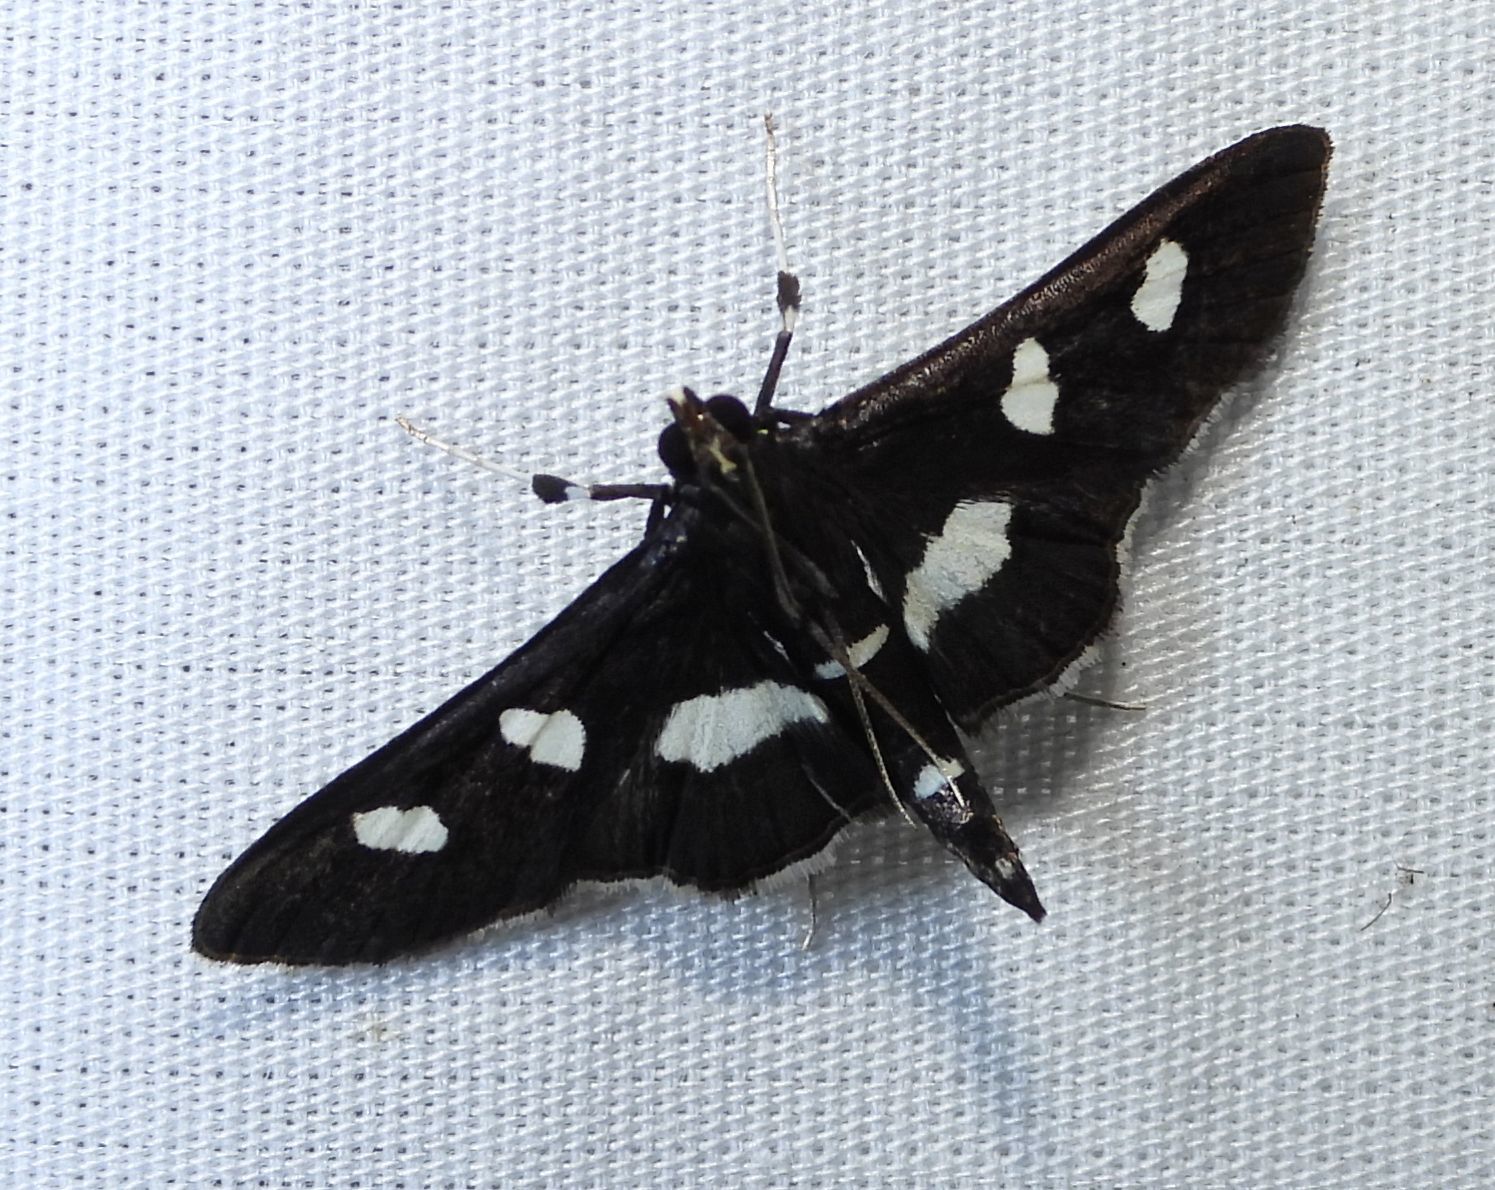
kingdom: Animalia
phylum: Arthropoda
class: Insecta
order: Lepidoptera
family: Crambidae
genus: Desmia
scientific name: Desmia
